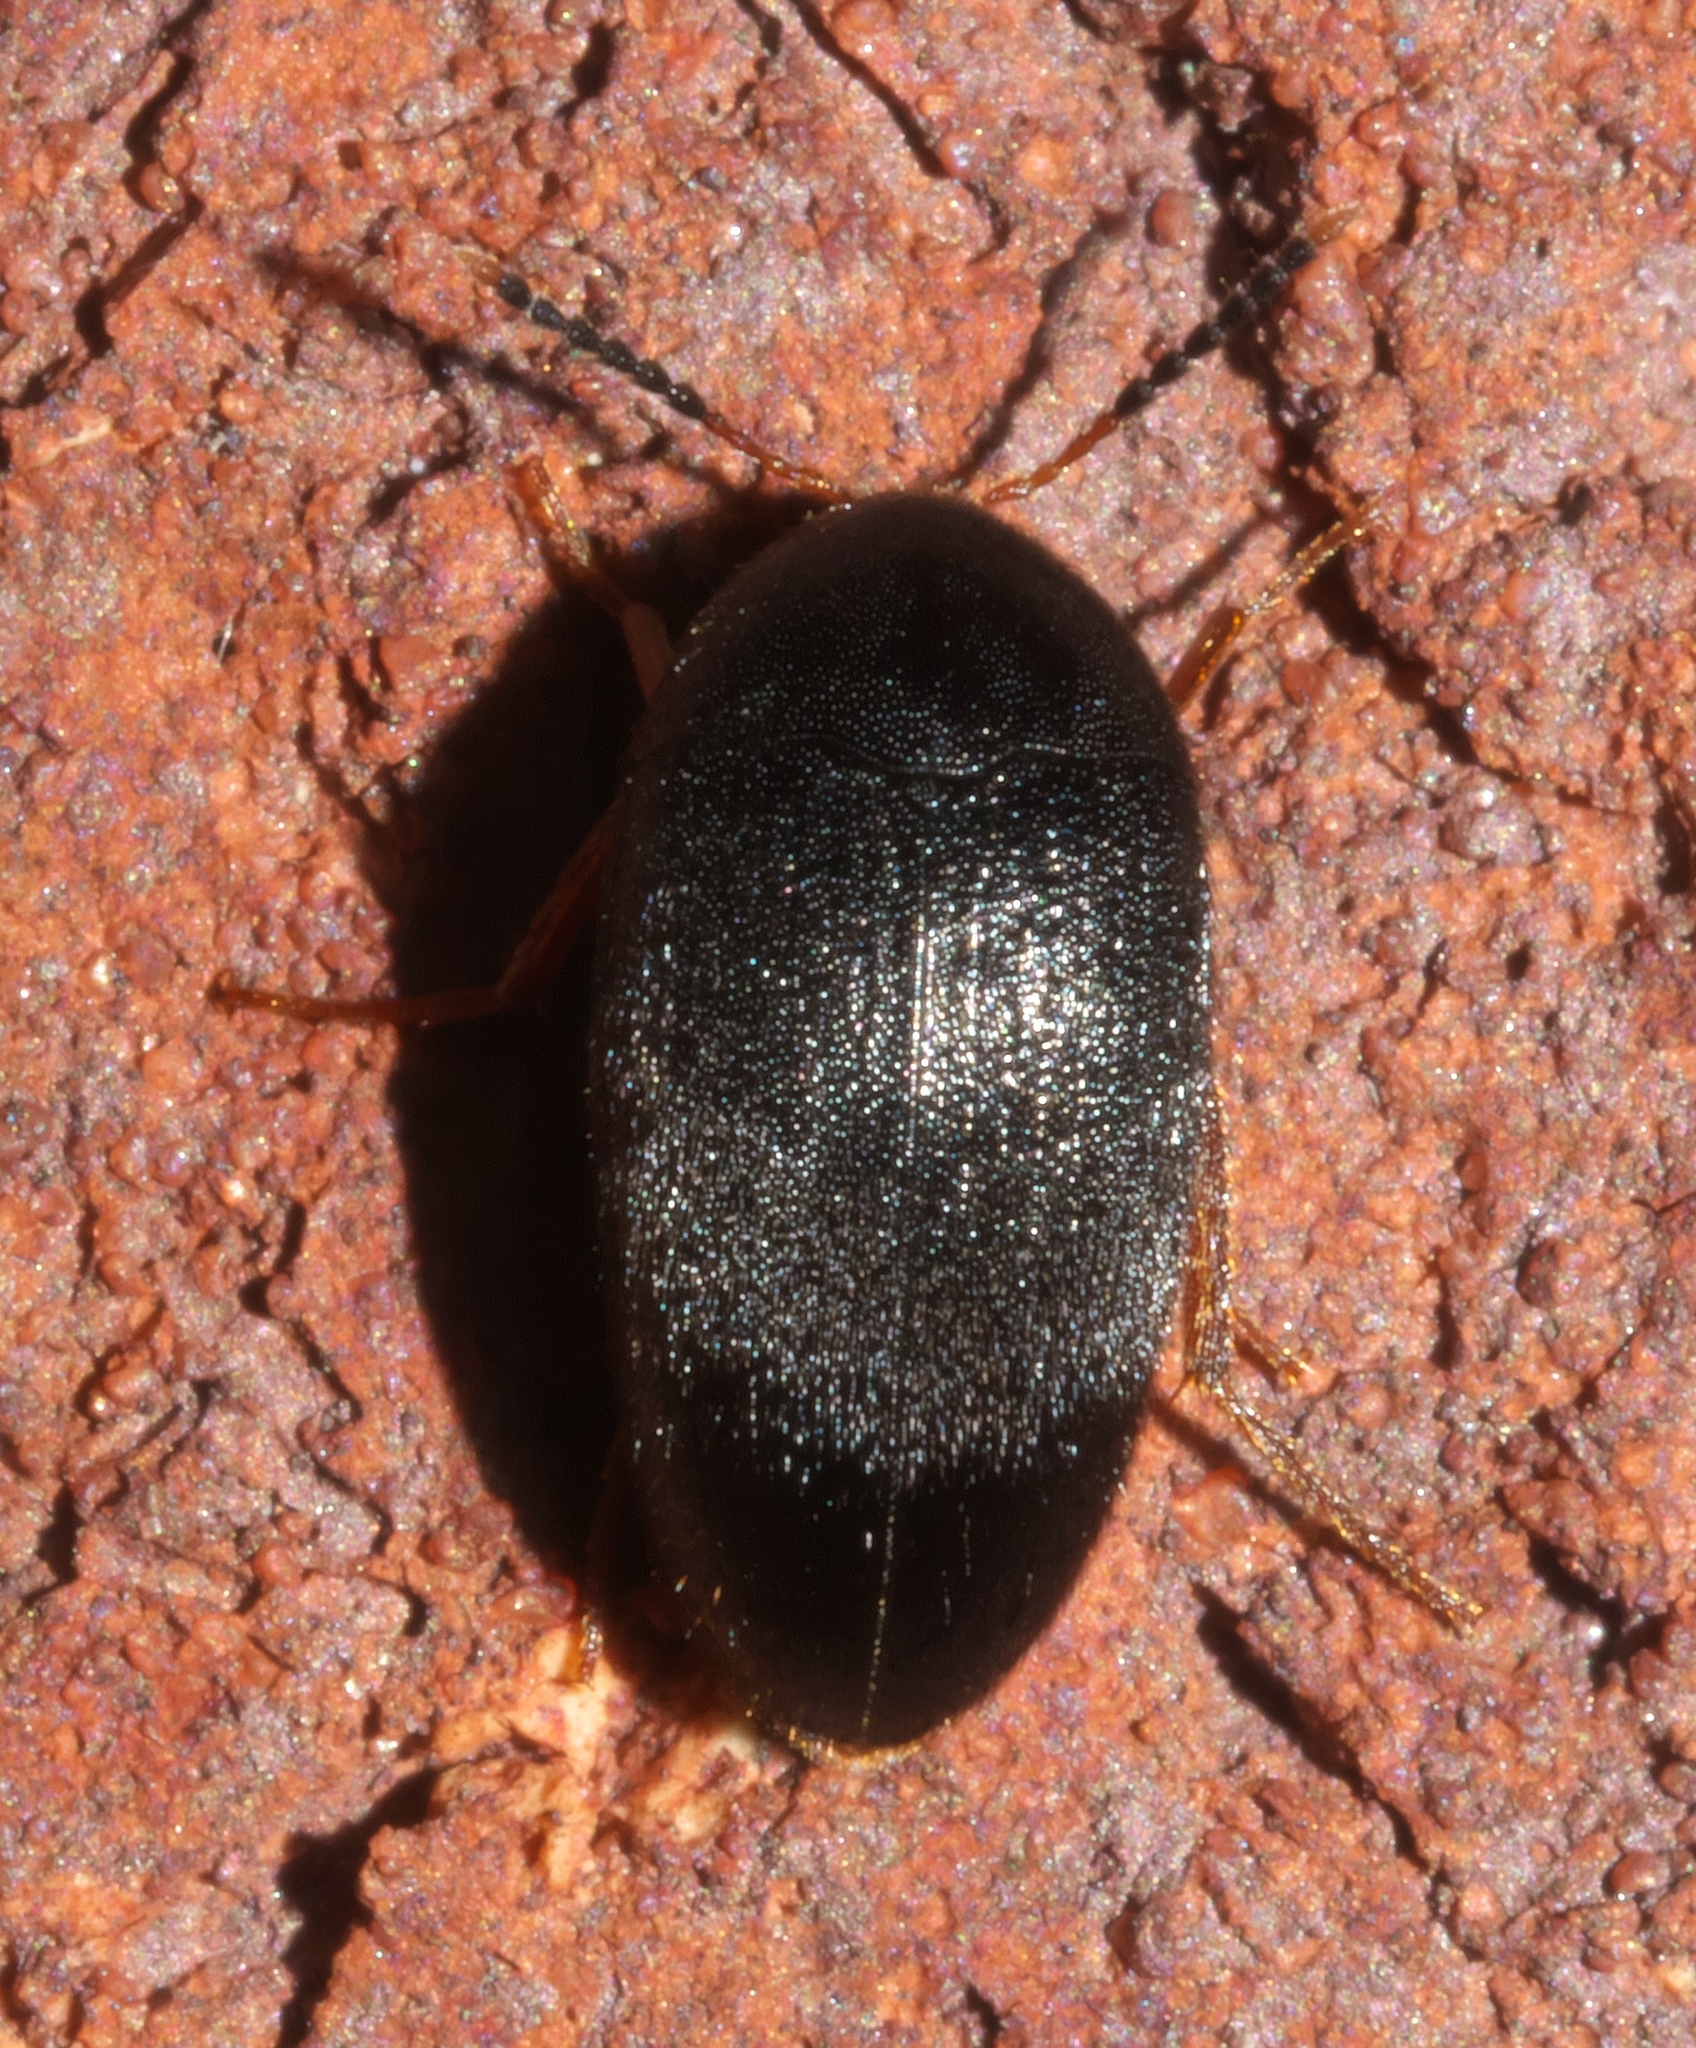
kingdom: Animalia
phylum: Arthropoda
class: Insecta
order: Coleoptera
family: Tetratomidae
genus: Eustrophopsis
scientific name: Eustrophopsis bicolor
